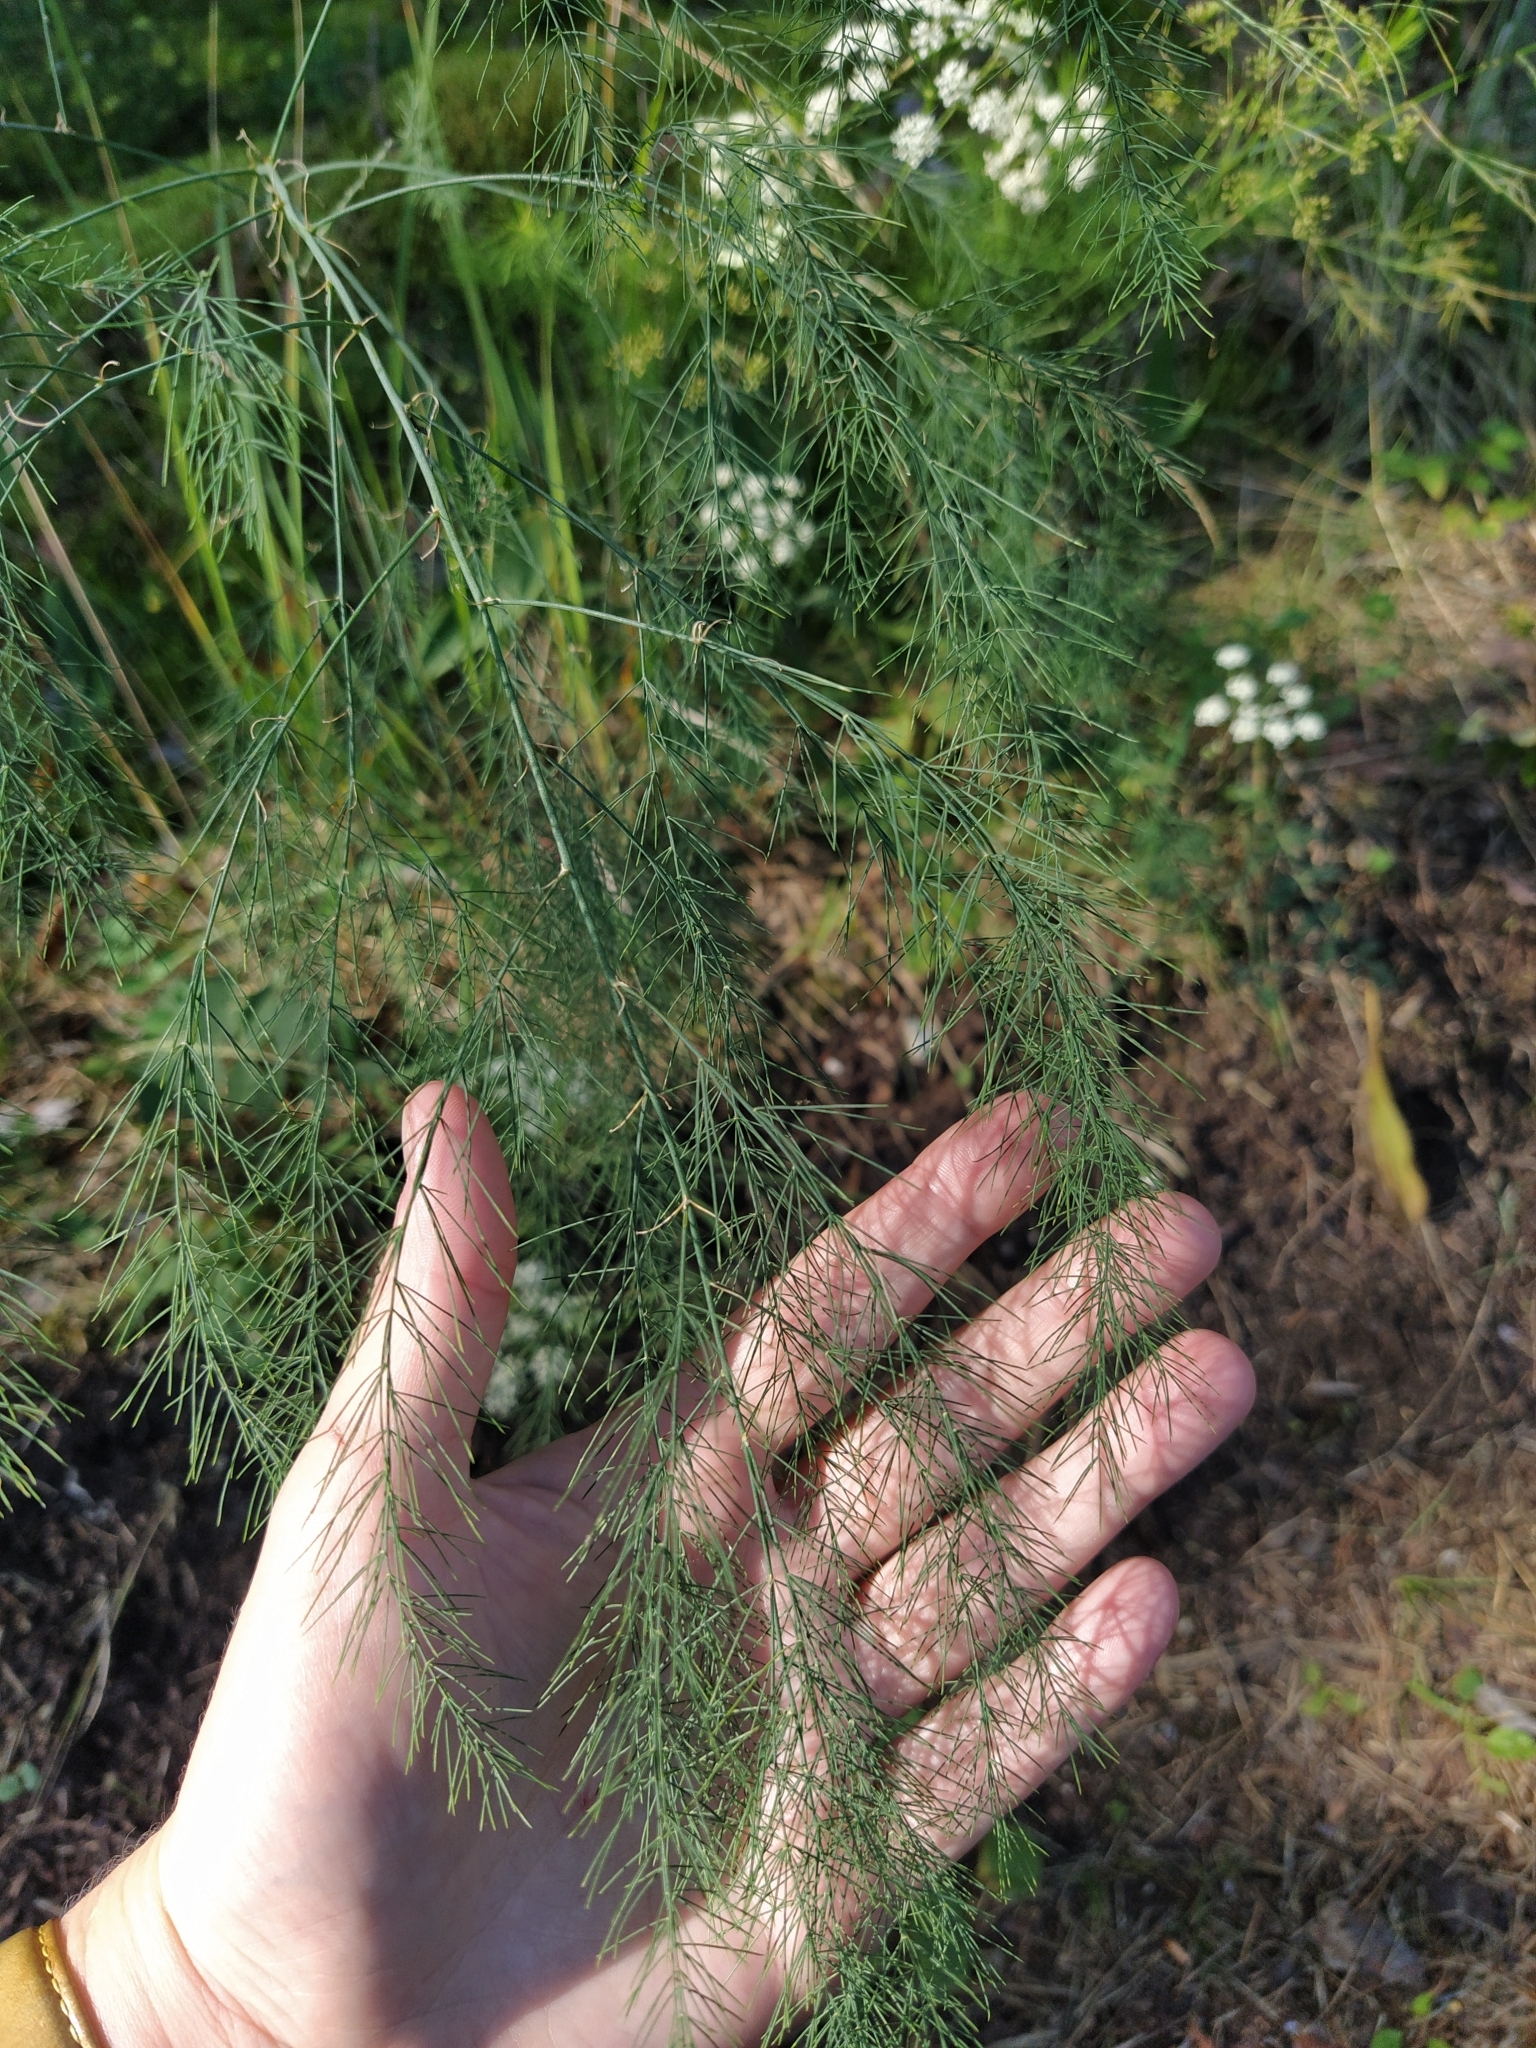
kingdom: Plantae
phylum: Tracheophyta
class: Liliopsida
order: Asparagales
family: Asparagaceae
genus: Asparagus
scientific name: Asparagus officinalis
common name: Garden asparagus
